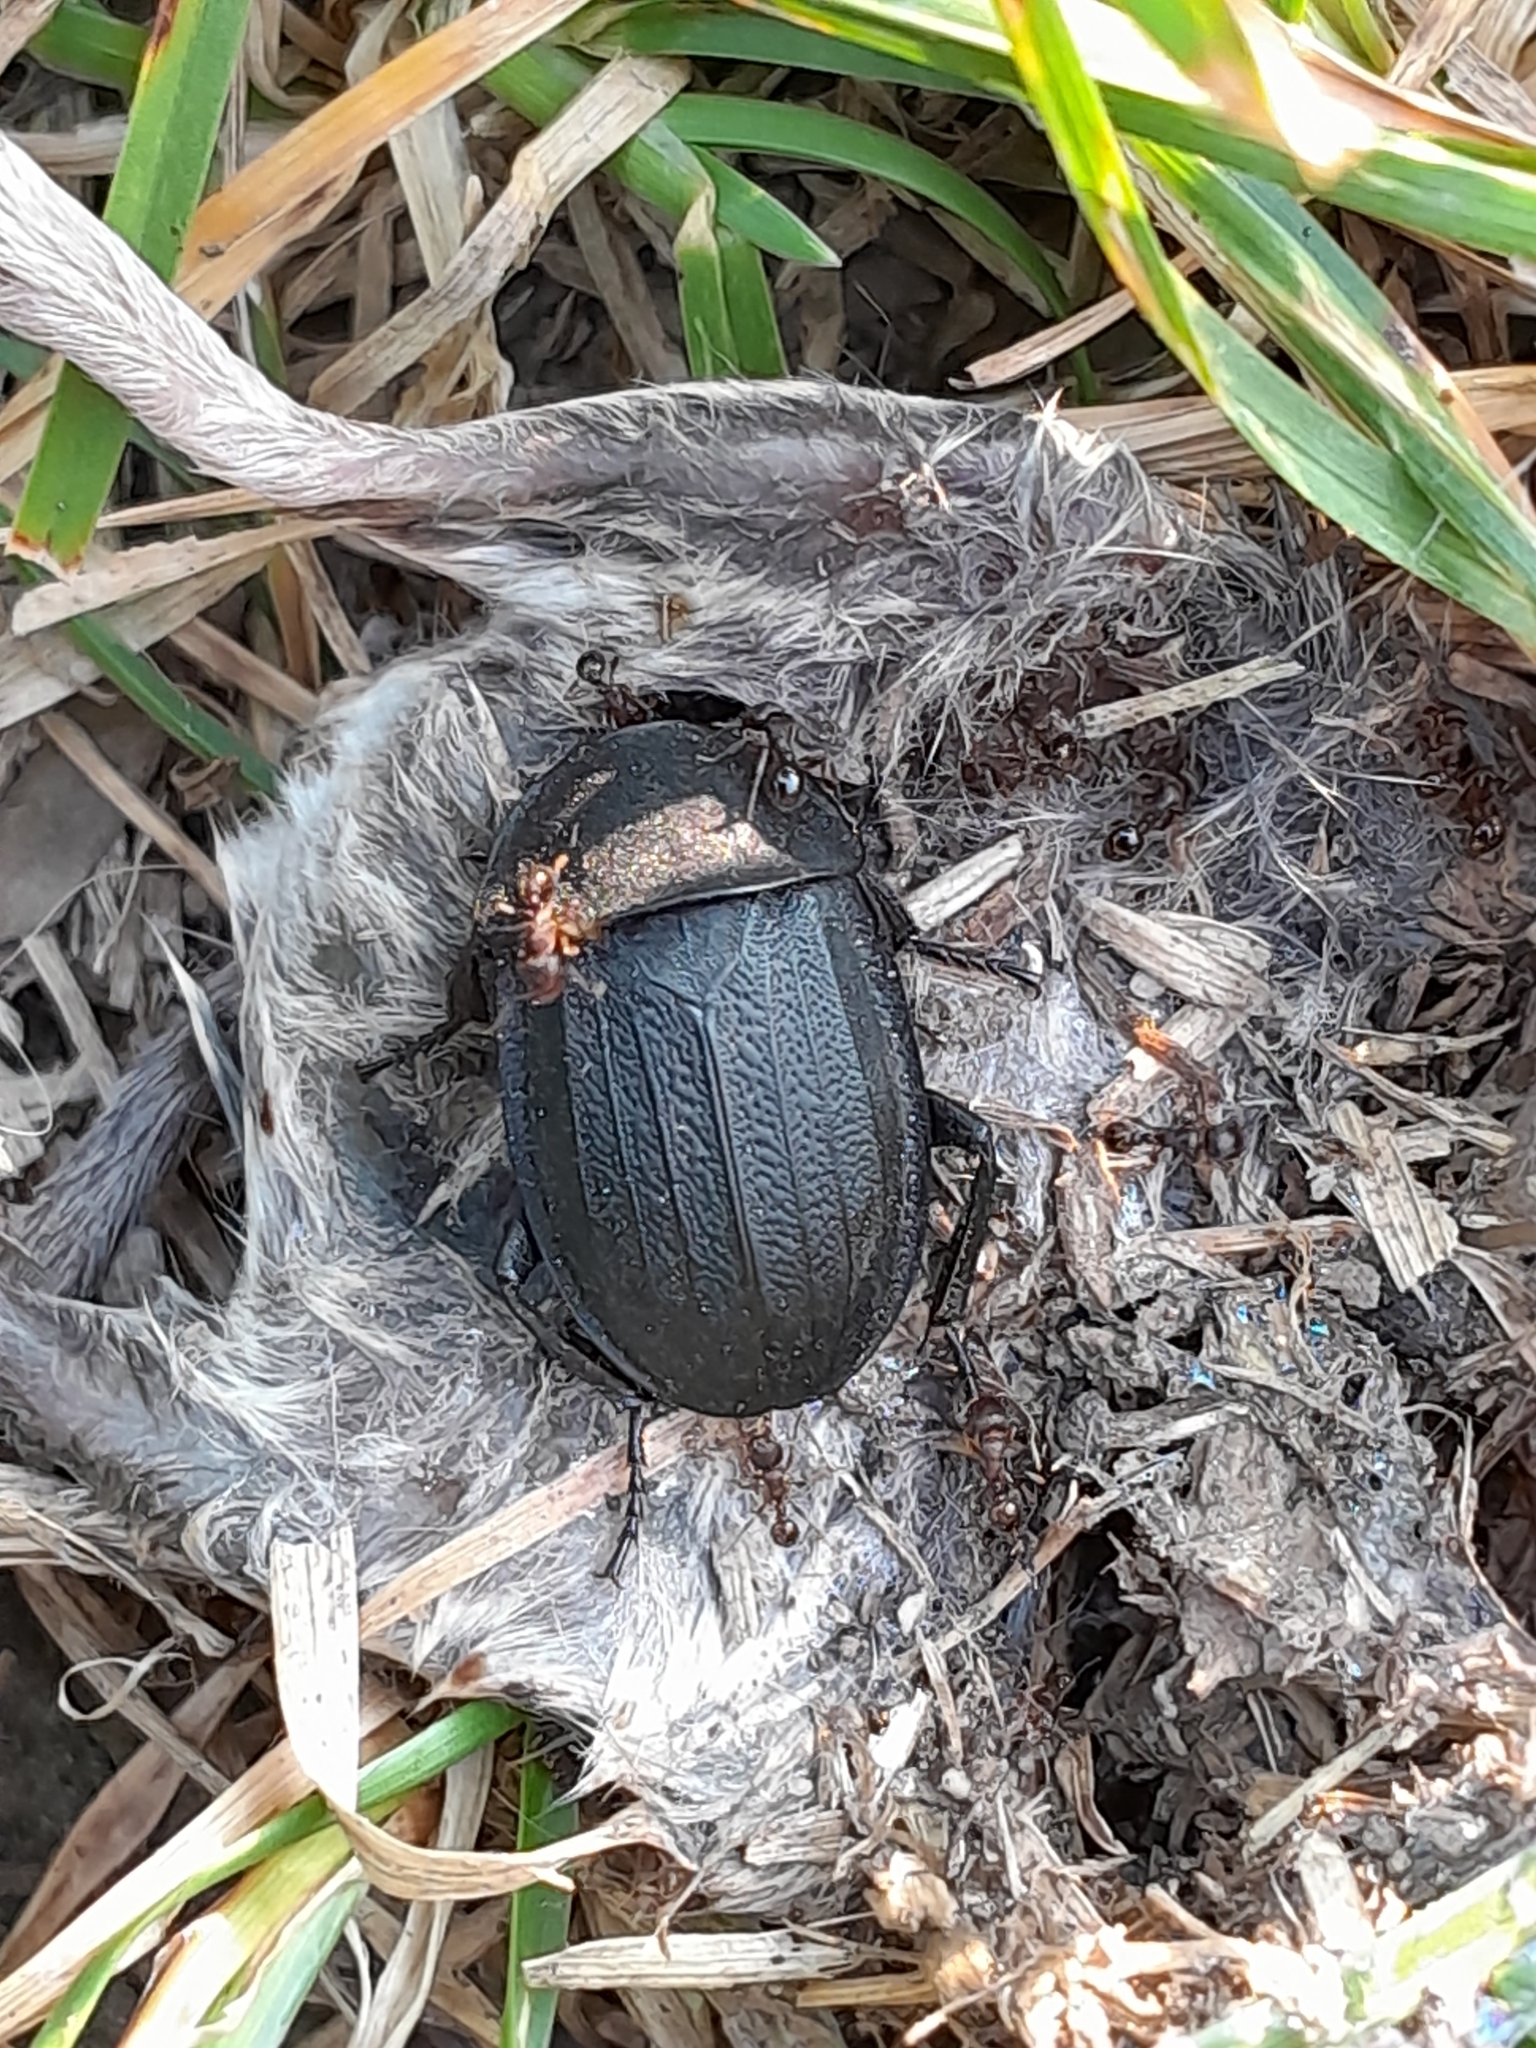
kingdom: Animalia
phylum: Arthropoda
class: Insecta
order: Coleoptera
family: Staphylinidae
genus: Silpha
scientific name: Silpha atrata
